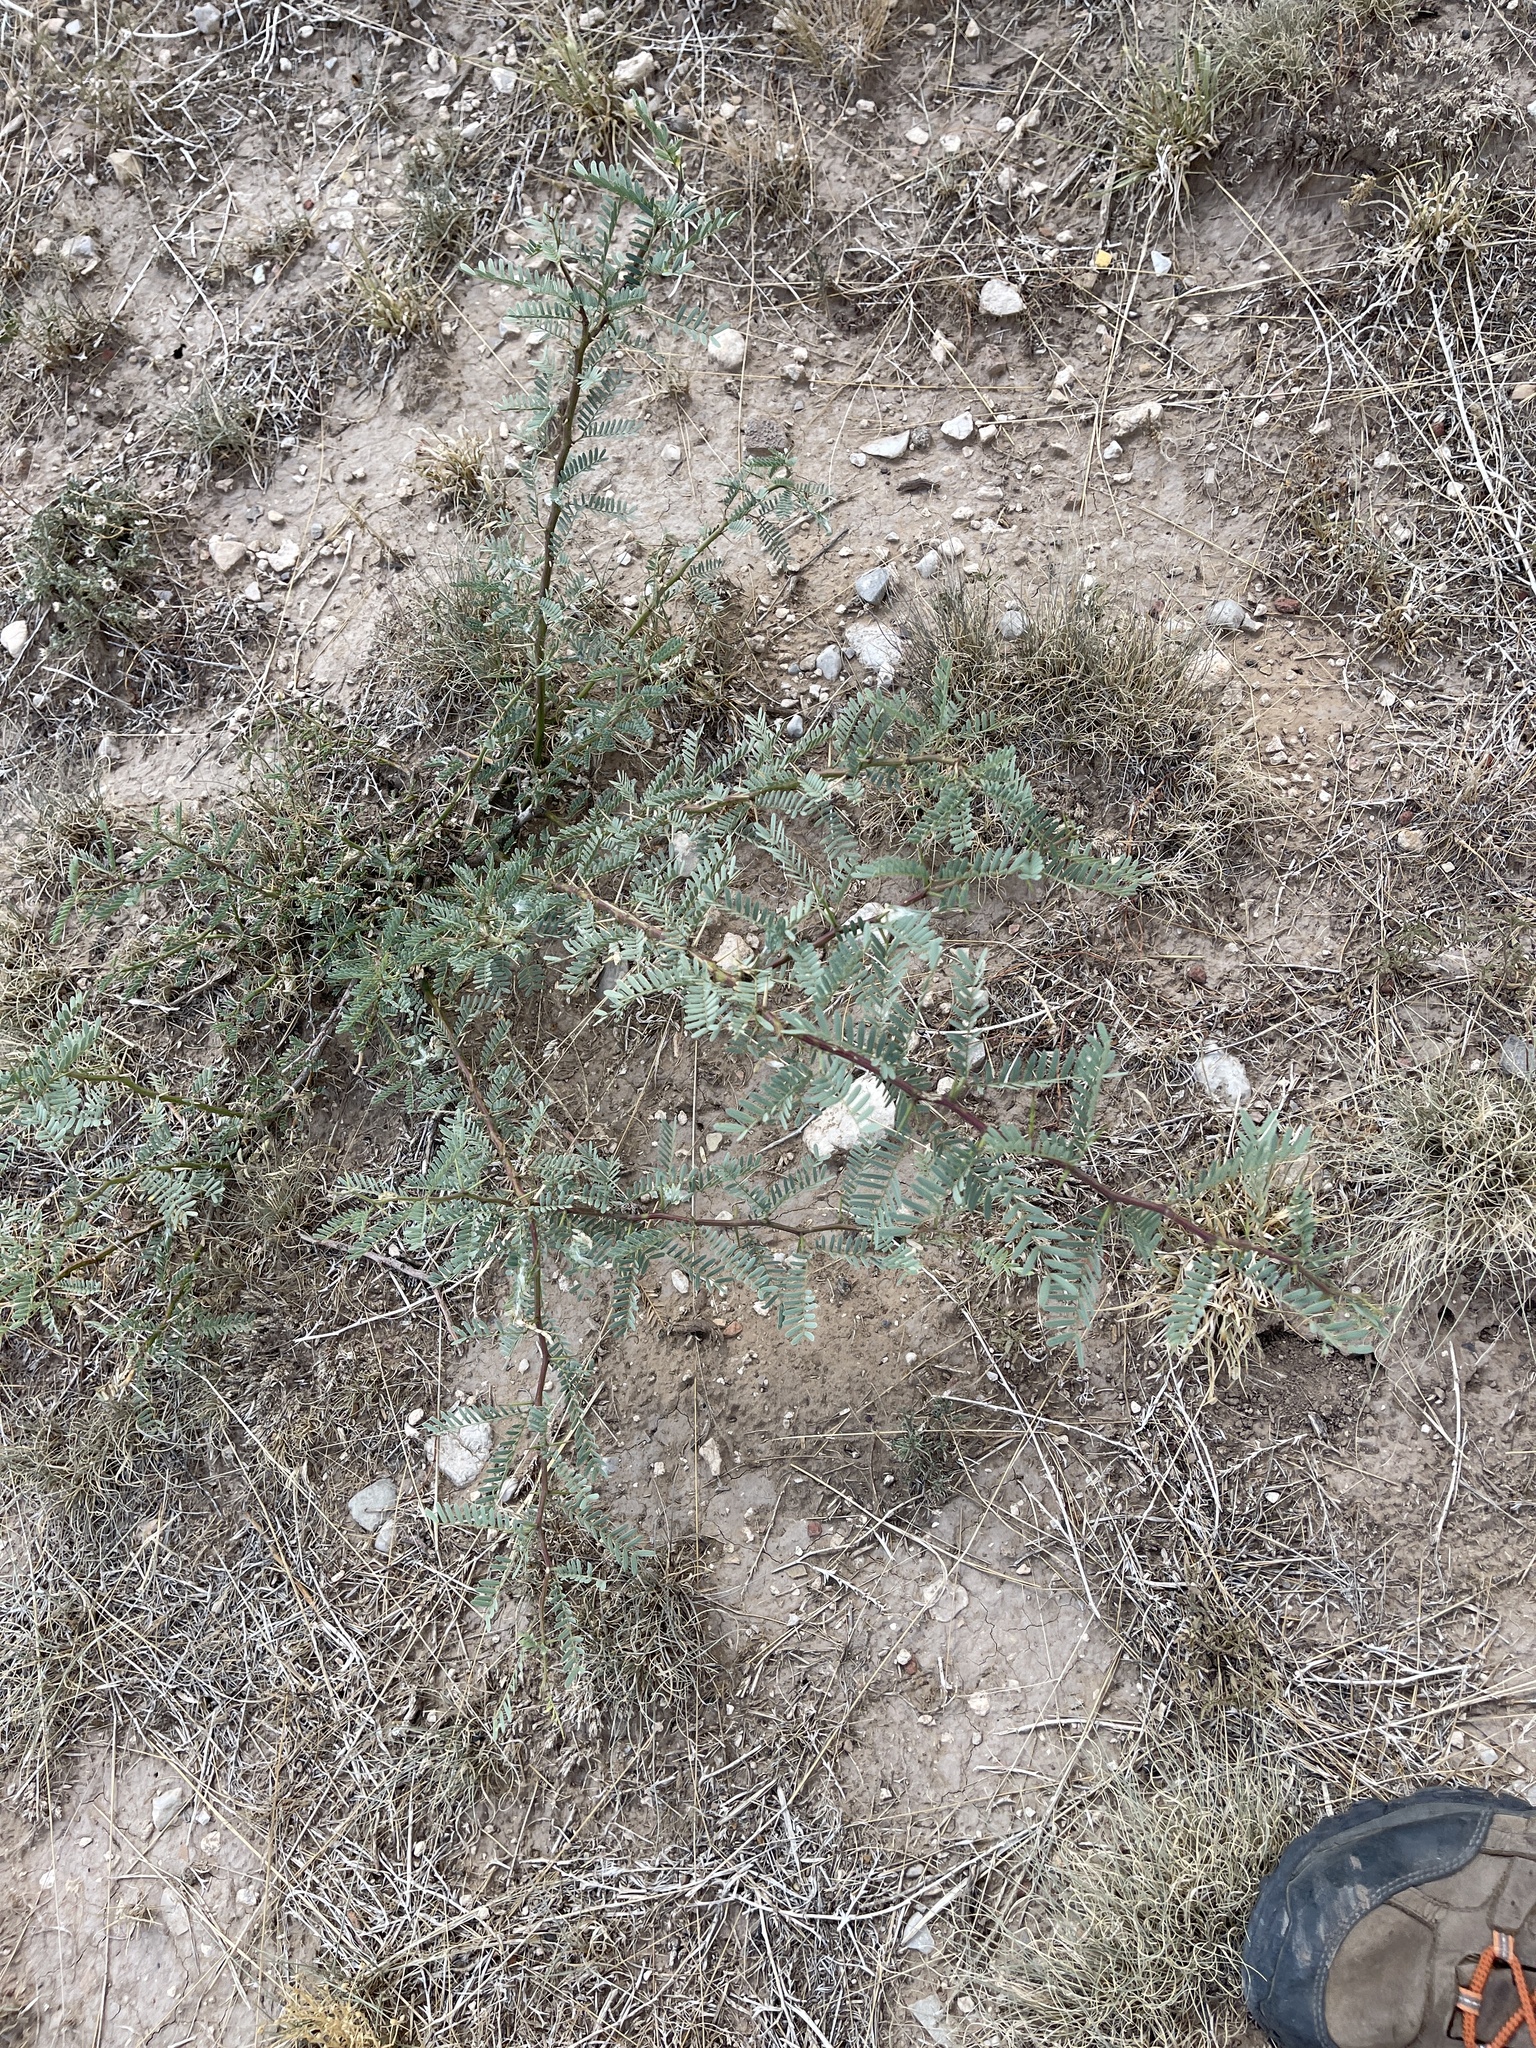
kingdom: Plantae
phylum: Tracheophyta
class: Magnoliopsida
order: Fabales
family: Fabaceae
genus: Prosopis
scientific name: Prosopis glandulosa
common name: Honey mesquite
